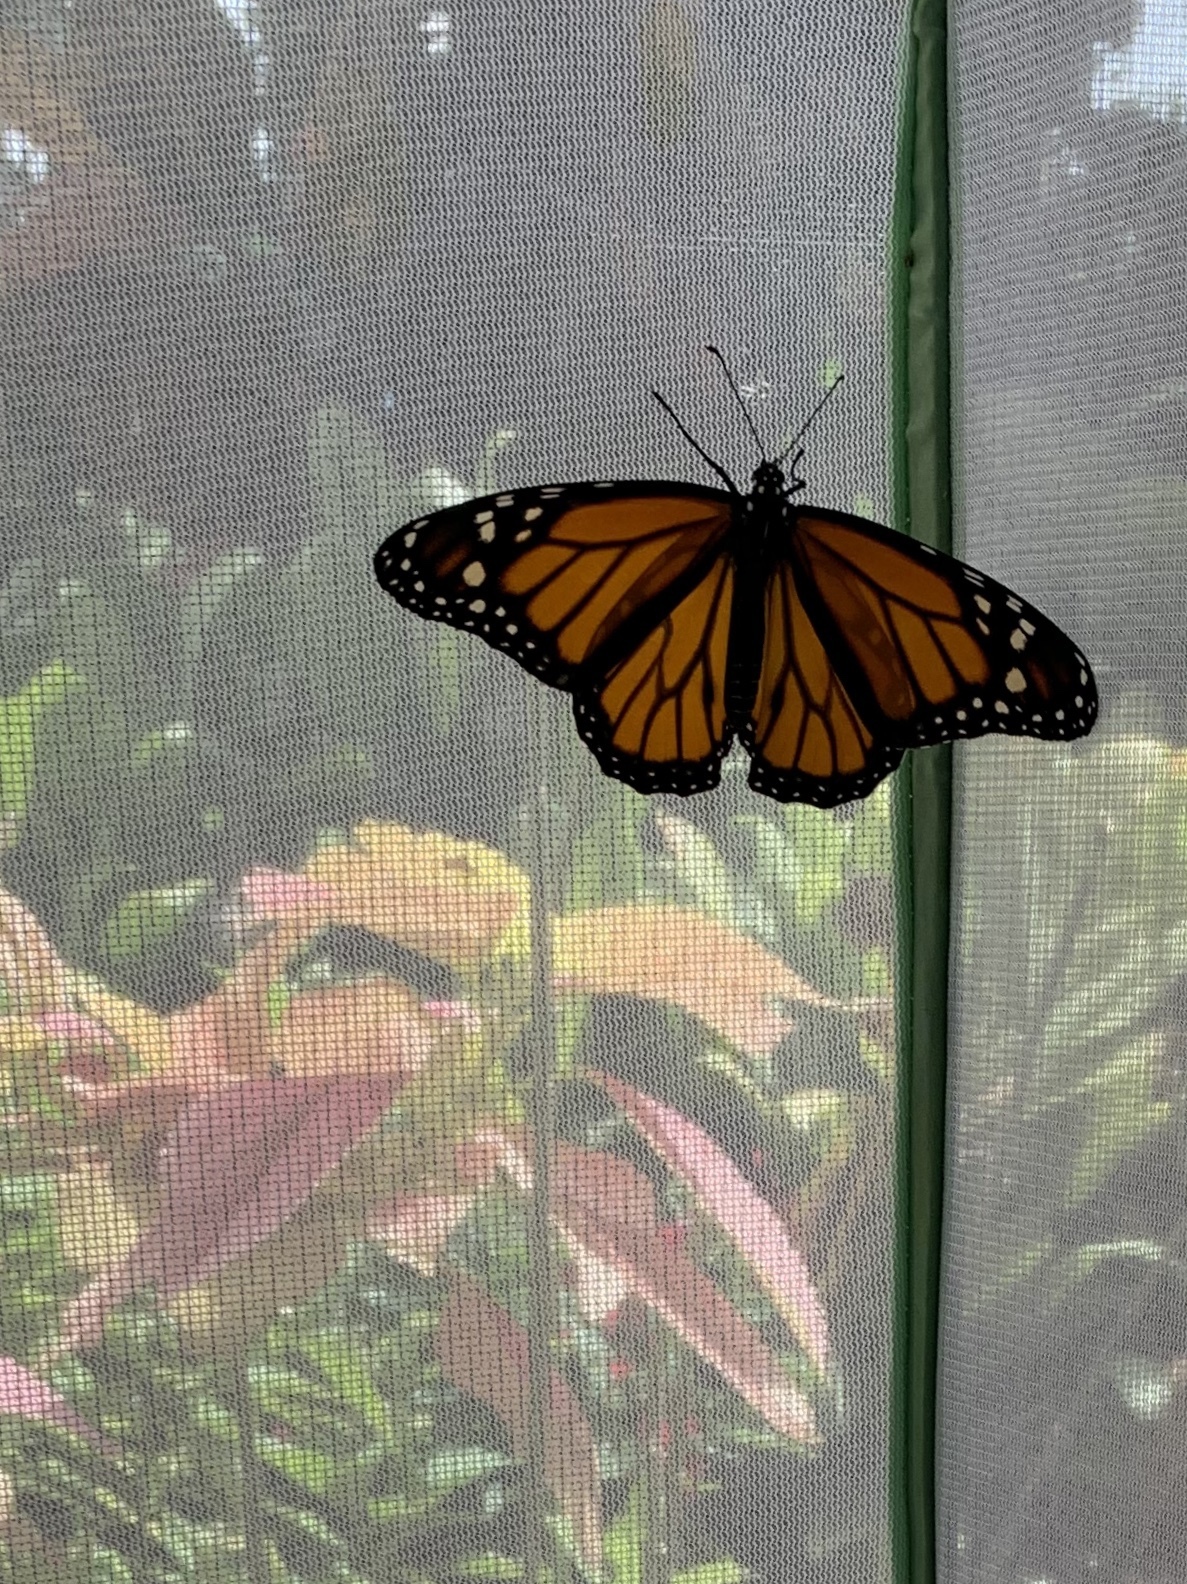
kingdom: Animalia
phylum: Arthropoda
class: Insecta
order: Lepidoptera
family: Nymphalidae
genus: Danaus
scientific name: Danaus plexippus
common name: Monarch
